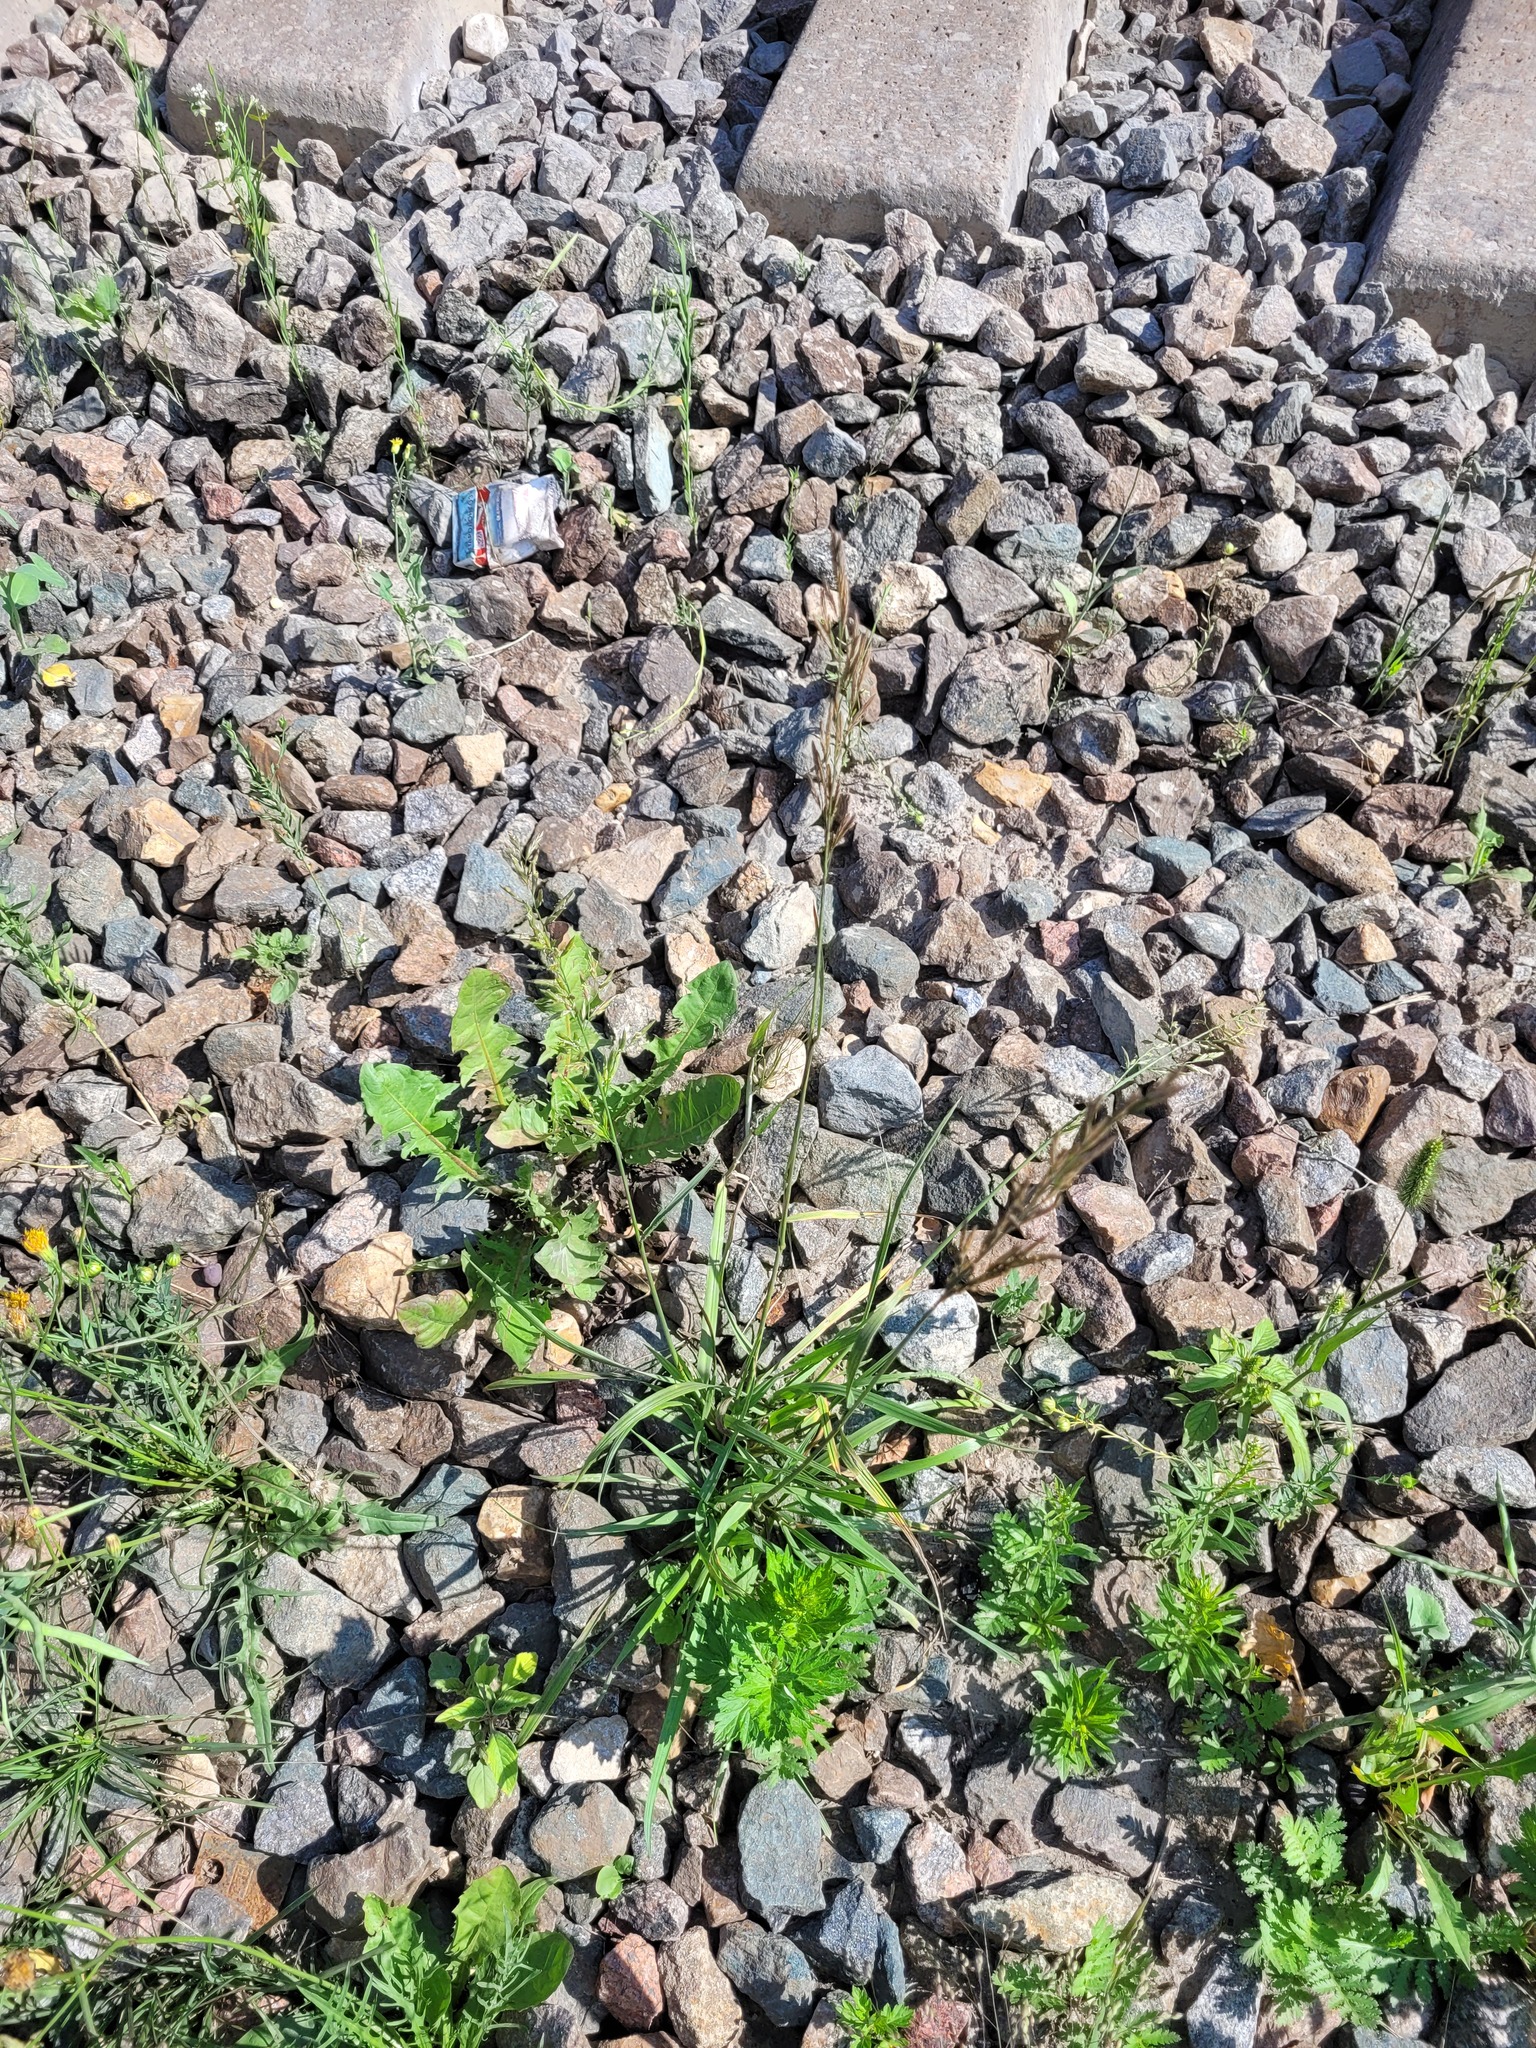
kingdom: Plantae
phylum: Tracheophyta
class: Liliopsida
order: Poales
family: Poaceae
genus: Lolium
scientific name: Lolium pratense
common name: Dover grass
